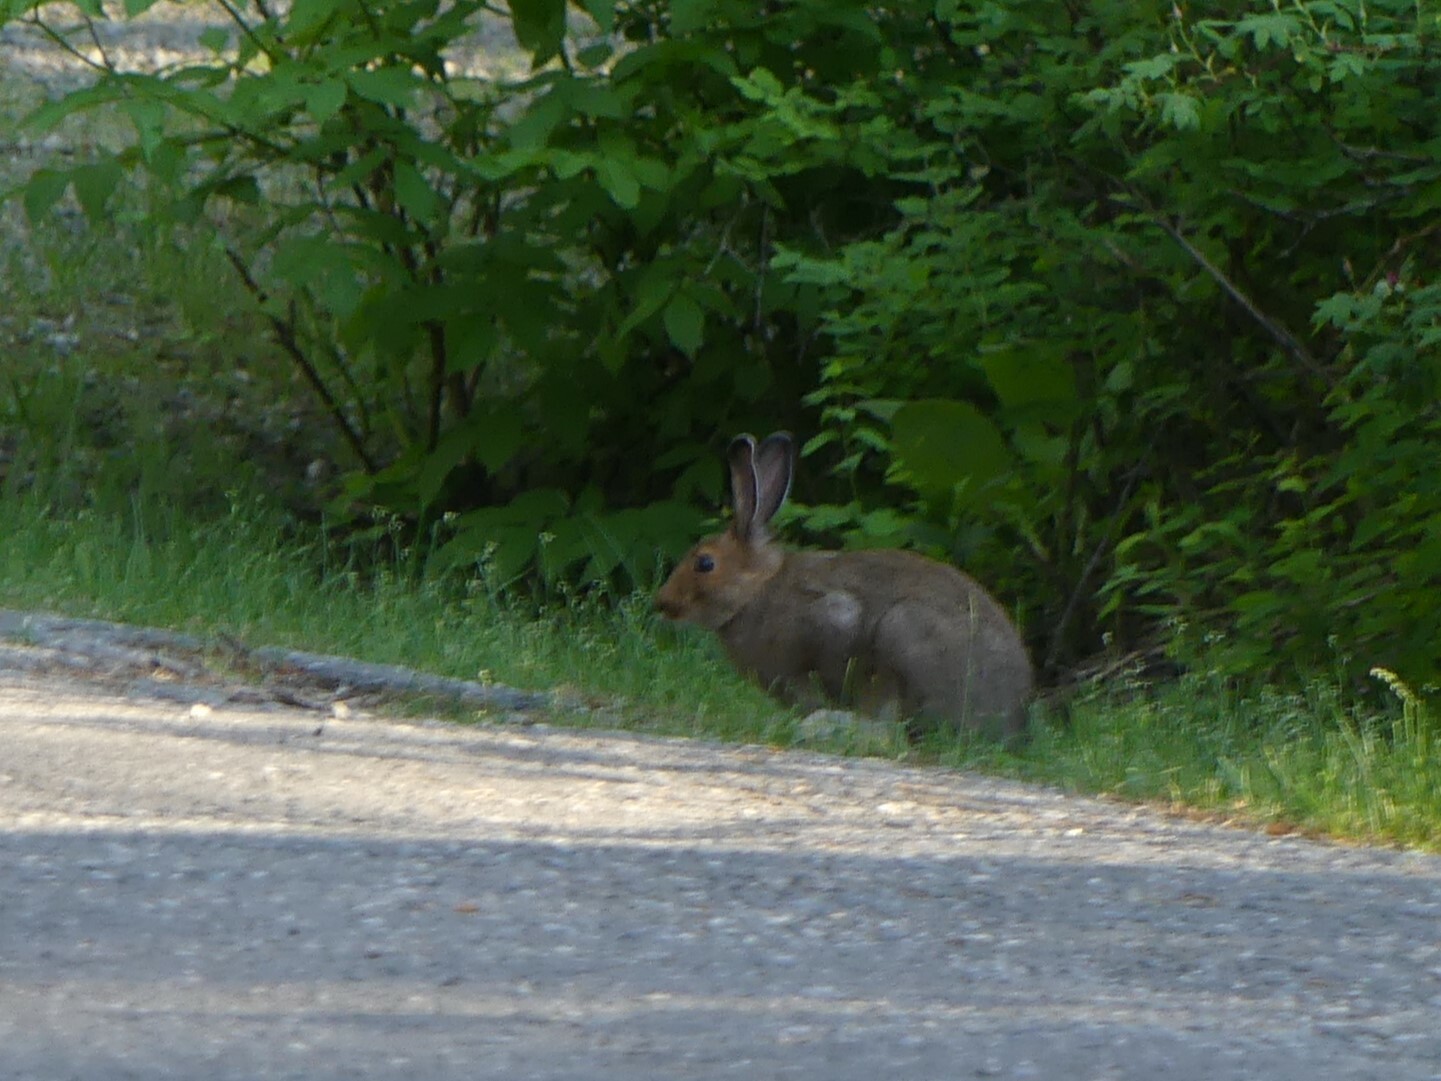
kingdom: Animalia
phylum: Chordata
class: Mammalia
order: Lagomorpha
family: Leporidae
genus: Lepus
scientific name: Lepus americanus
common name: Snowshoe hare
